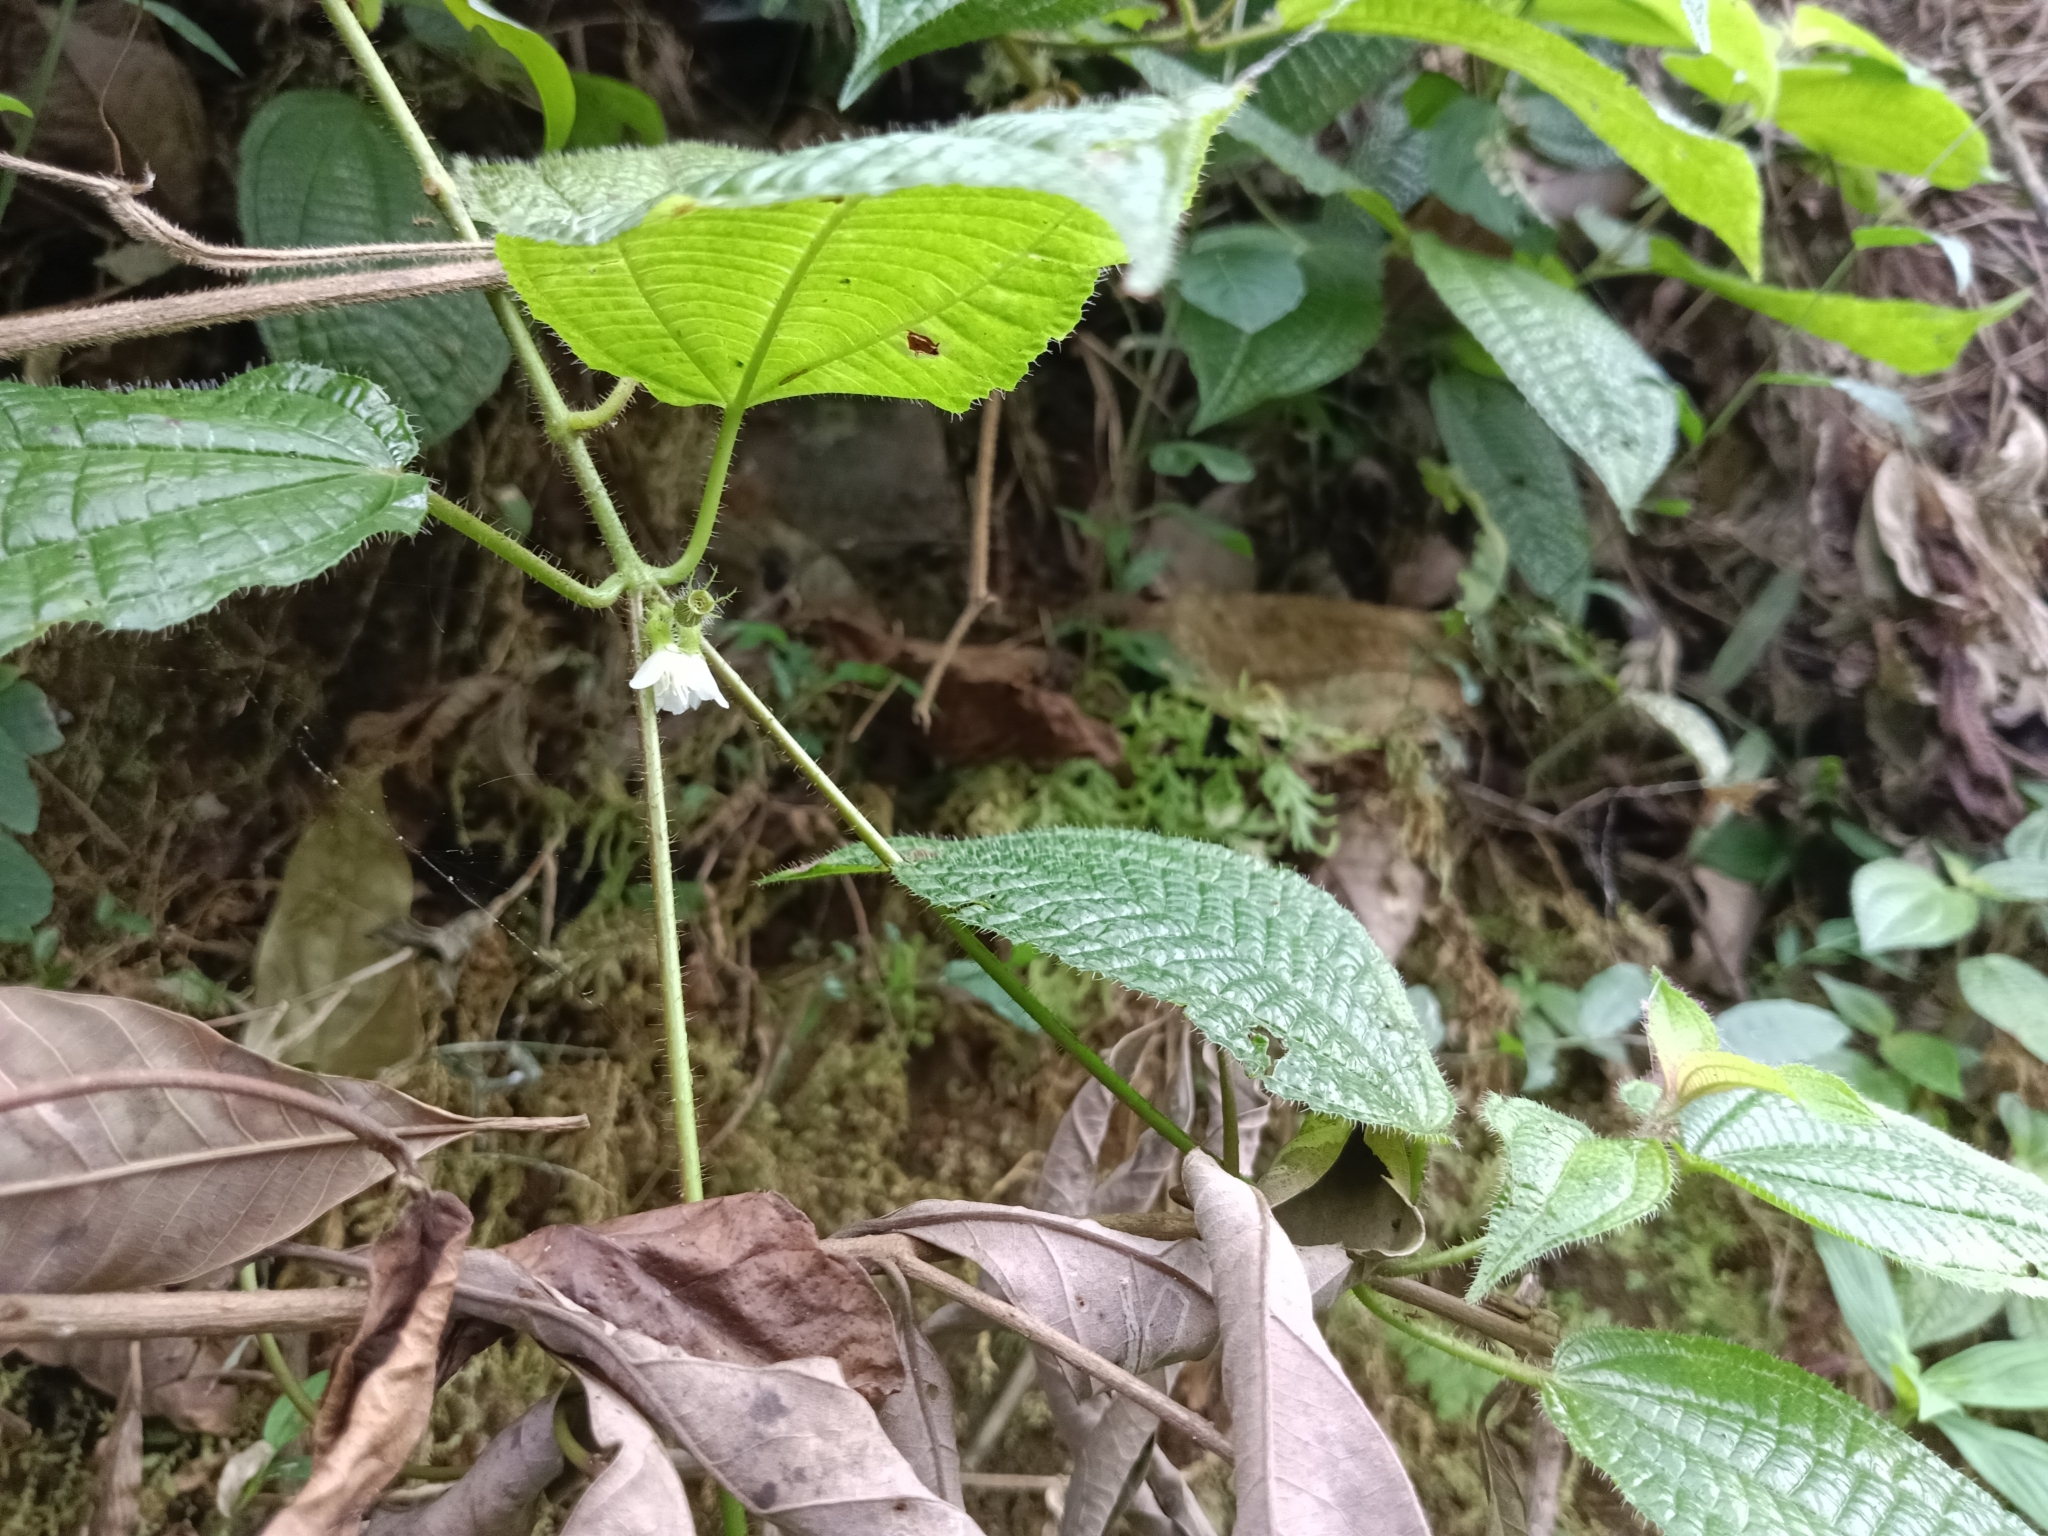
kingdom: Plantae
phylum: Tracheophyta
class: Magnoliopsida
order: Myrtales
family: Melastomataceae
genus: Miconia
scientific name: Miconia crenata
